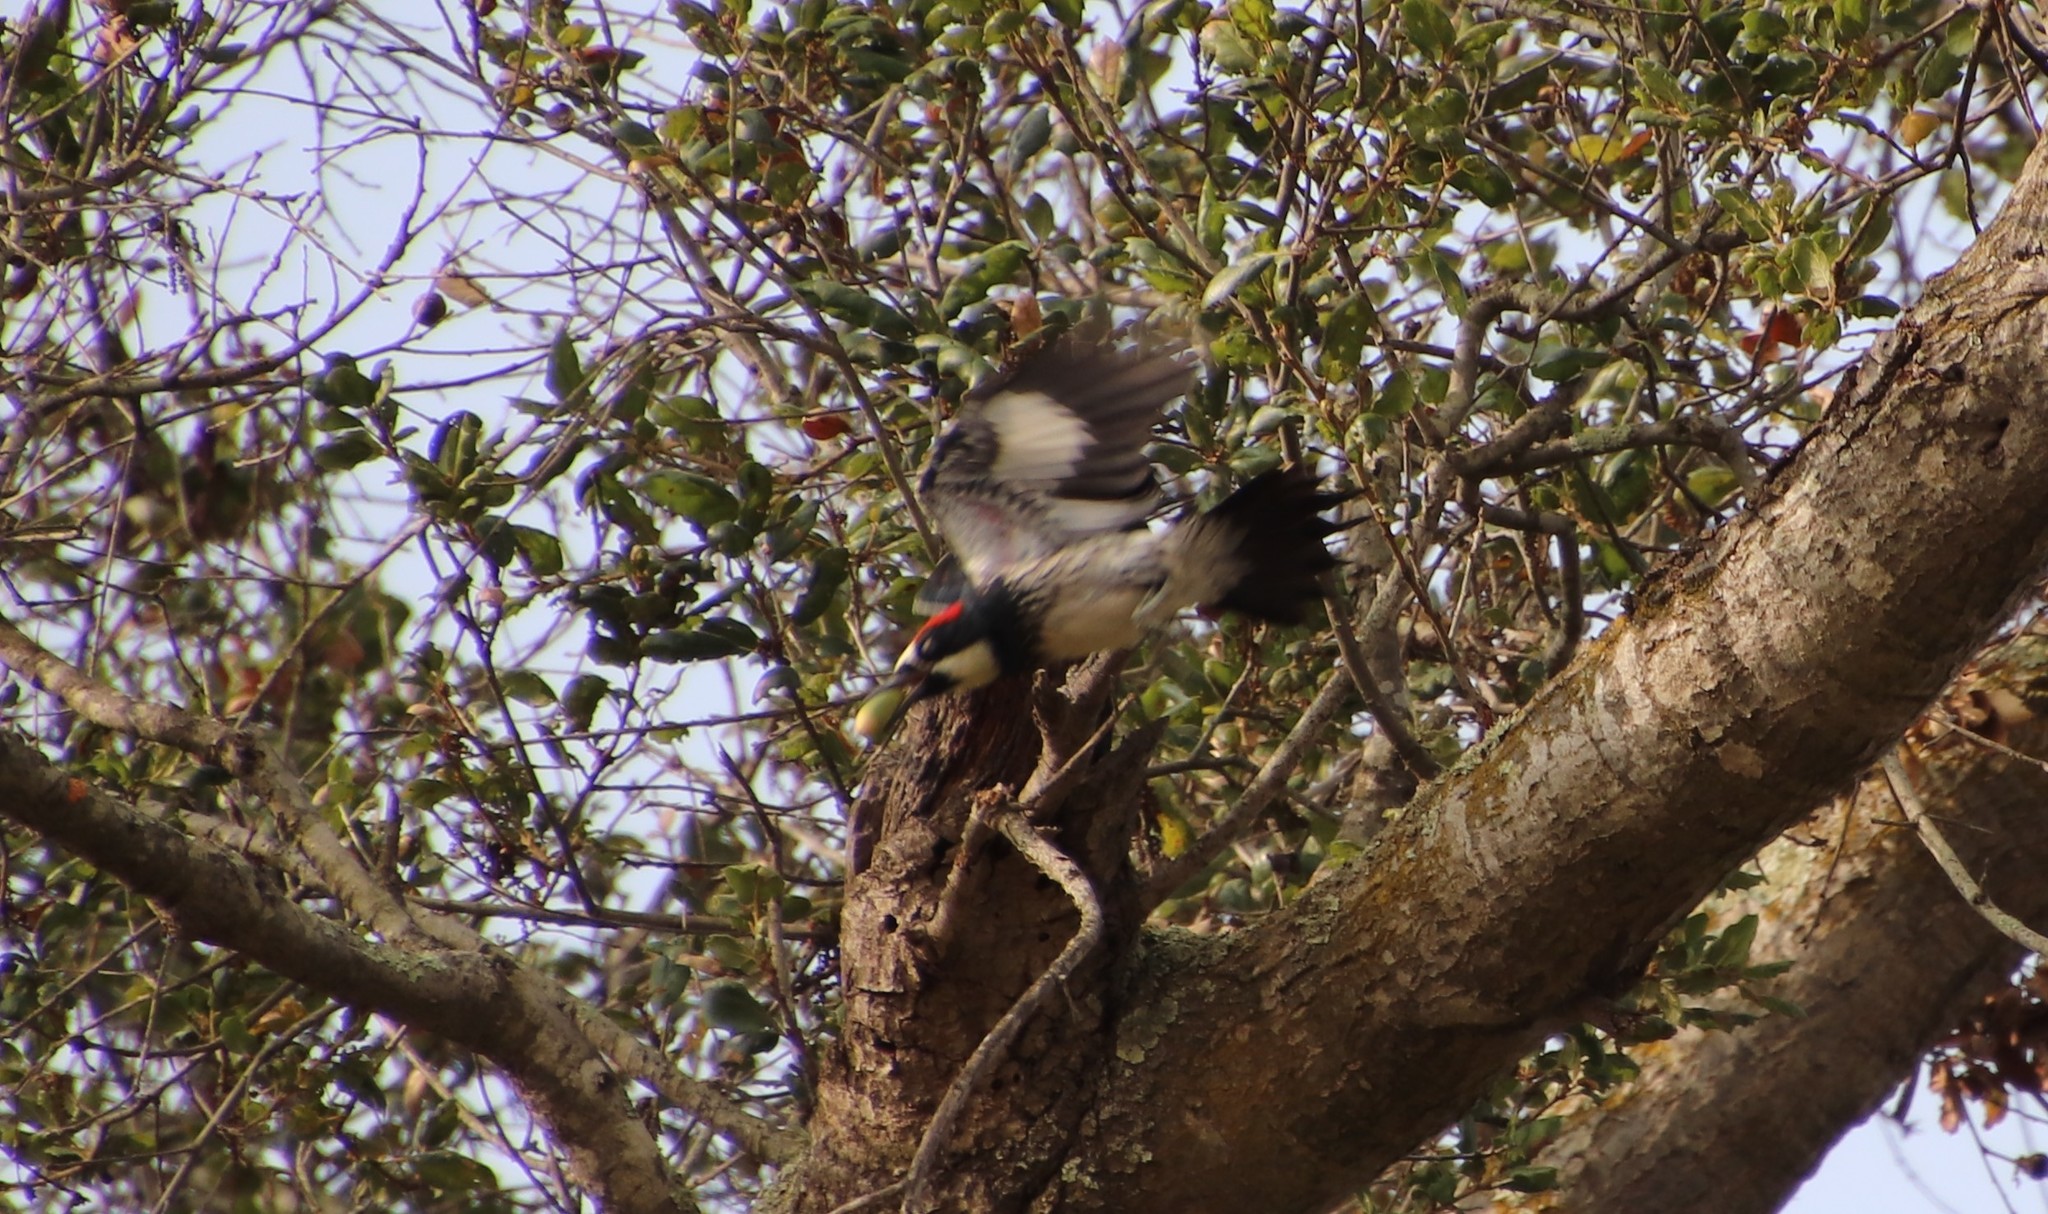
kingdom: Animalia
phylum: Chordata
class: Aves
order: Piciformes
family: Picidae
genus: Melanerpes
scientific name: Melanerpes formicivorus
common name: Acorn woodpecker
